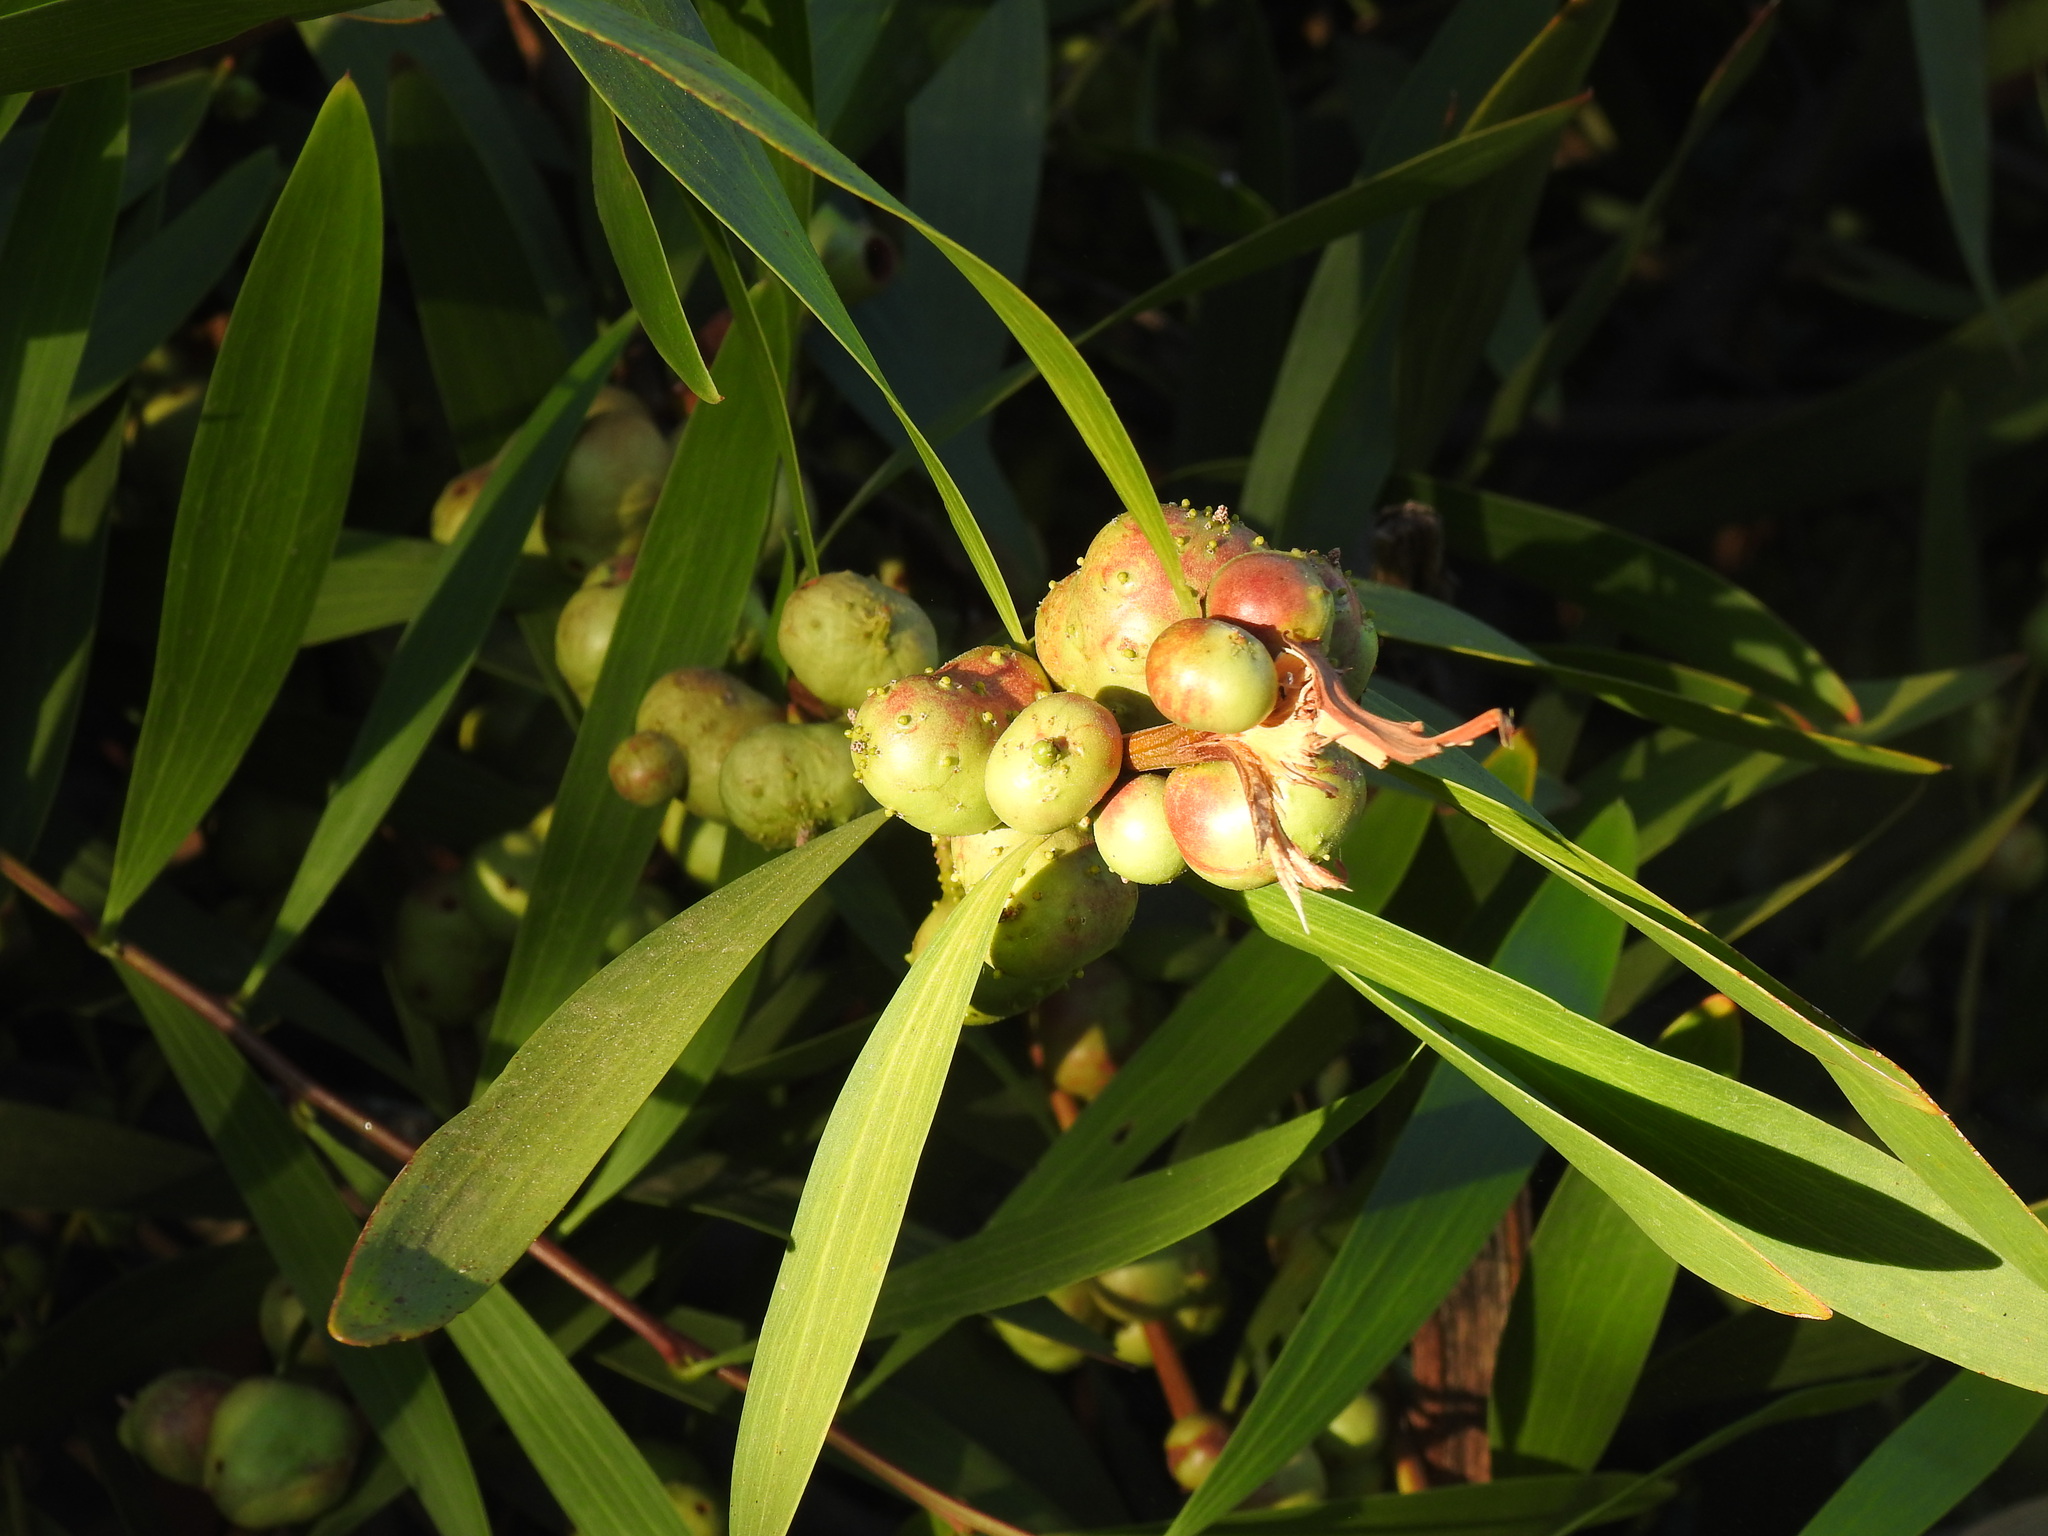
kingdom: Animalia
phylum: Arthropoda
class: Insecta
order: Hymenoptera
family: Pteromalidae
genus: Trichilogaster
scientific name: Trichilogaster acaciaelongifoliae
